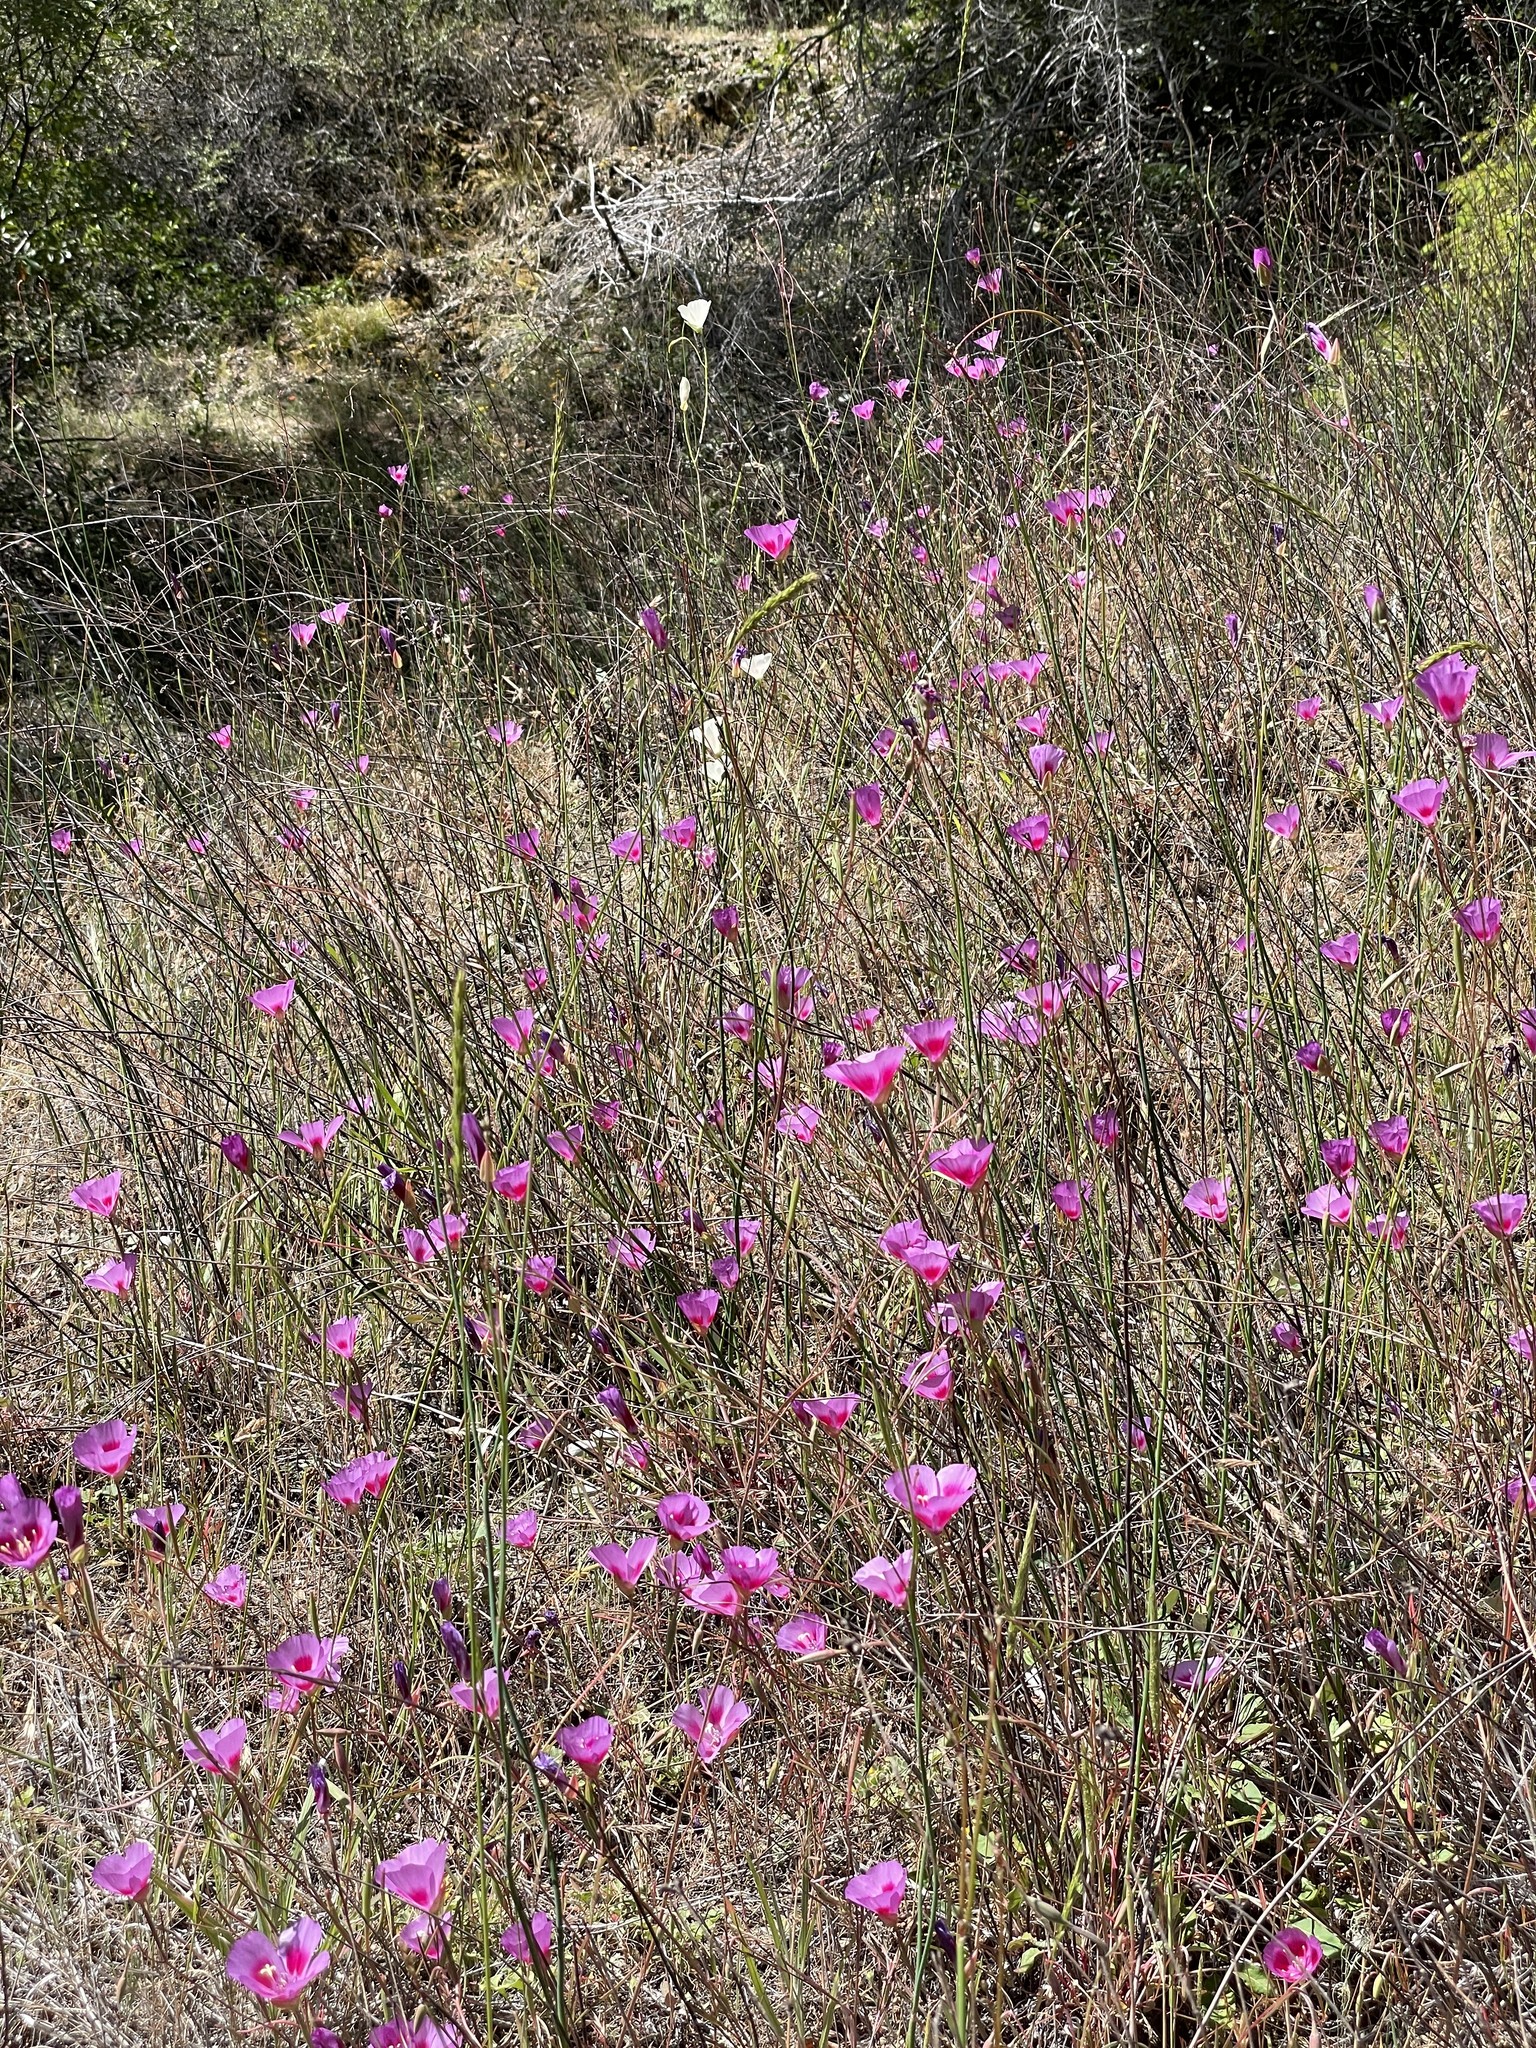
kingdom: Plantae
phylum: Tracheophyta
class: Magnoliopsida
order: Myrtales
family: Onagraceae
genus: Clarkia
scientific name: Clarkia gracilis
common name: Graceful clarkia
